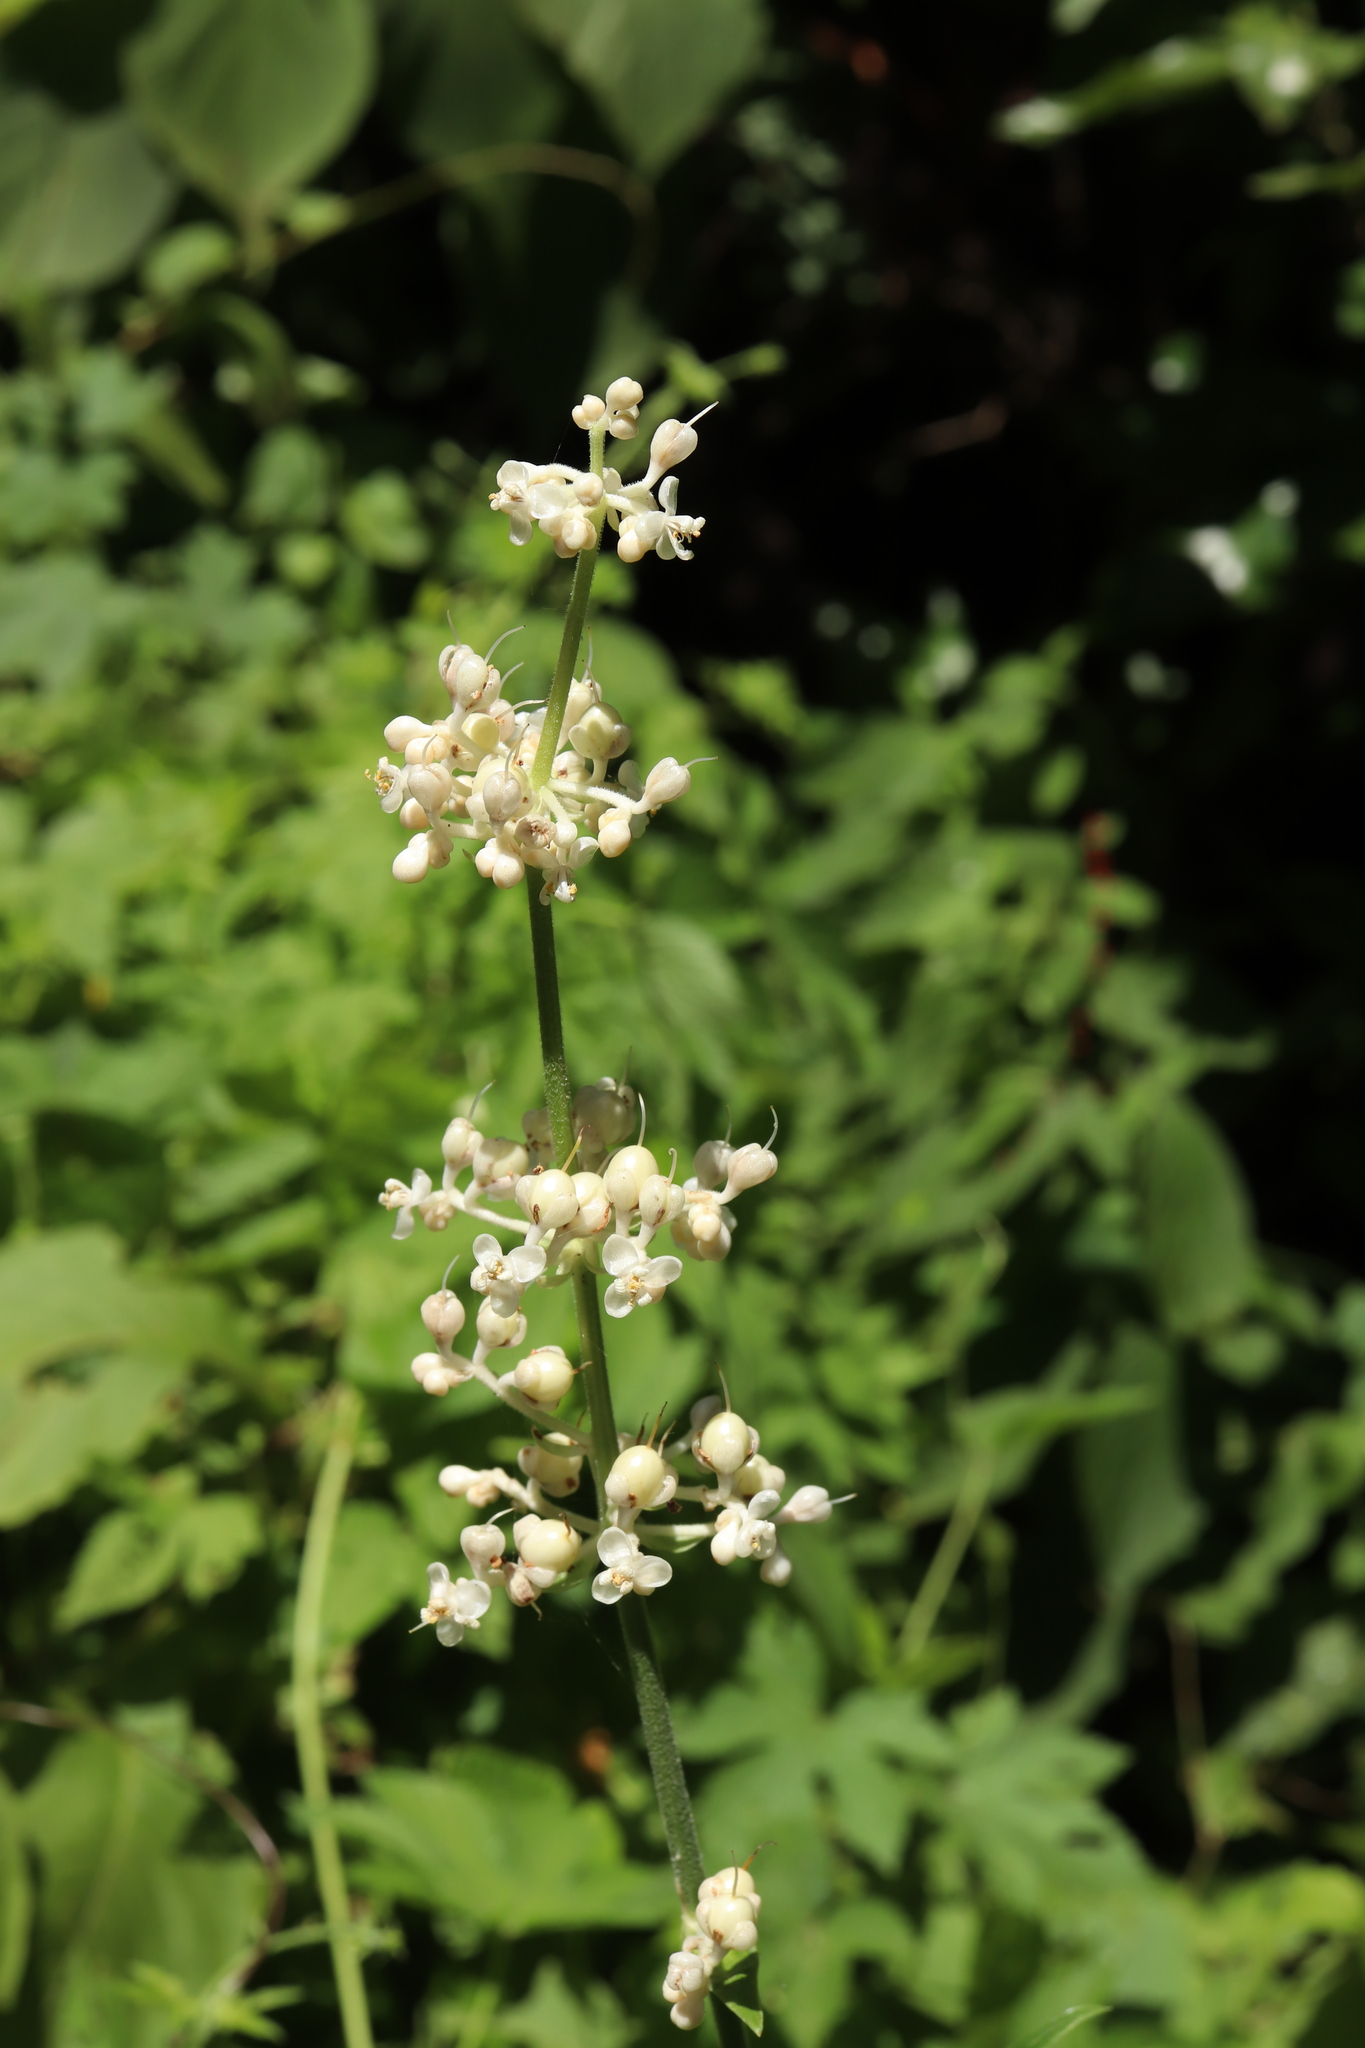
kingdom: Plantae
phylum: Tracheophyta
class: Liliopsida
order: Commelinales
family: Commelinaceae
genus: Pollia
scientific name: Pollia japonica
